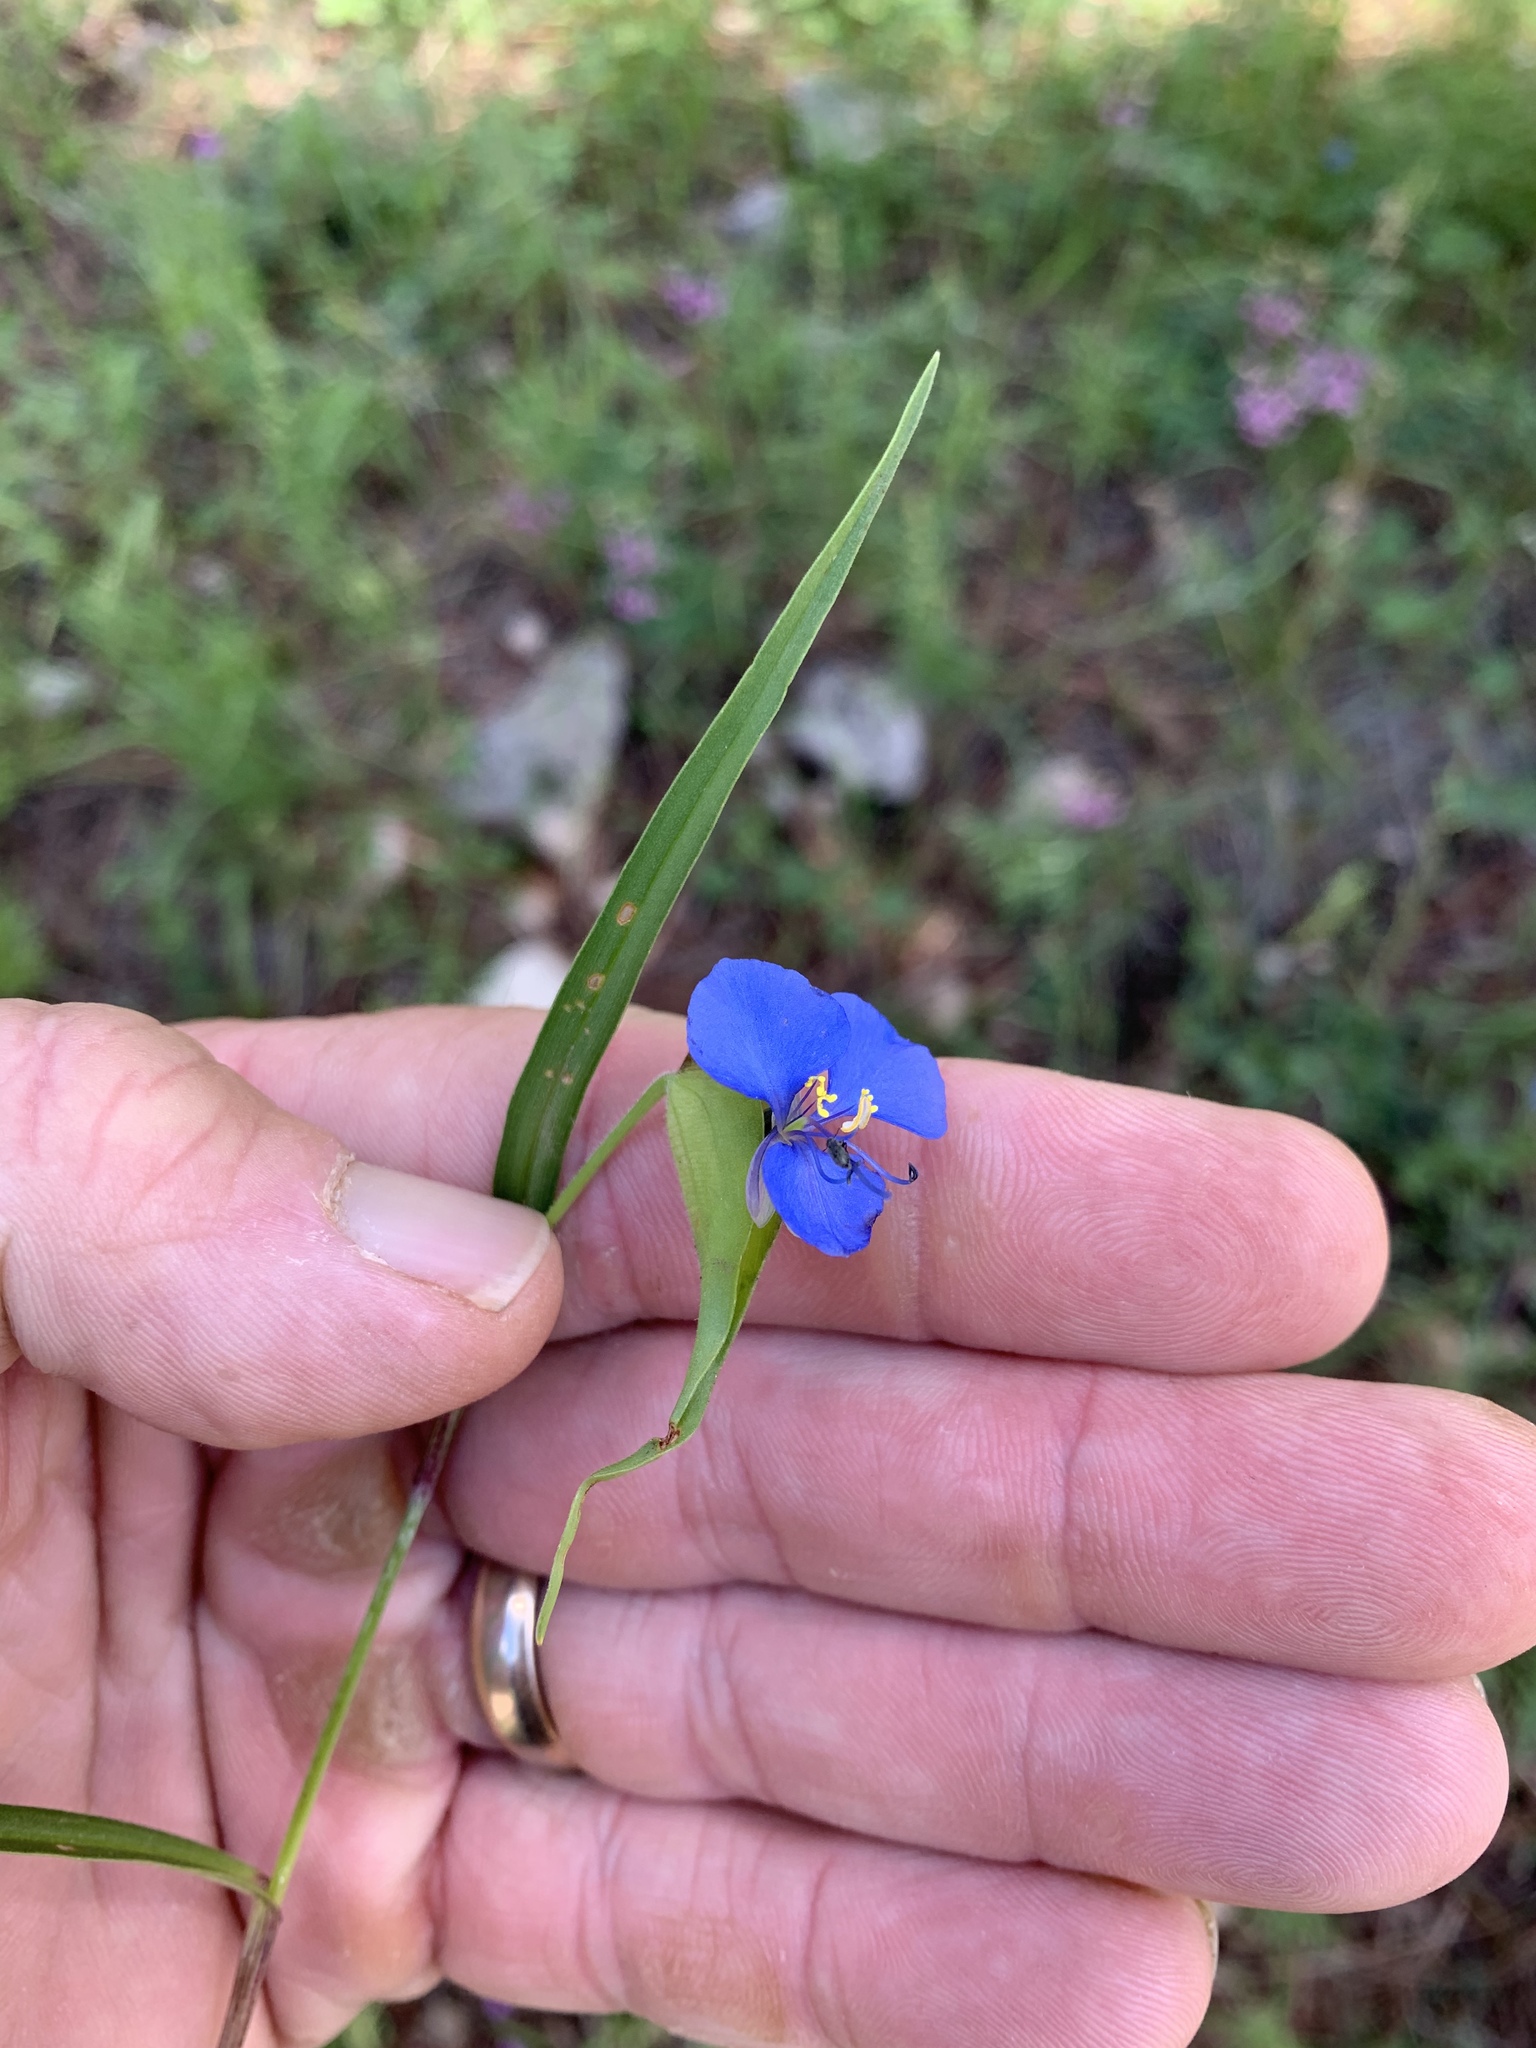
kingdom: Plantae
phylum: Tracheophyta
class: Liliopsida
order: Commelinales
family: Commelinaceae
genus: Commelina
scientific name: Commelina dianthifolia
